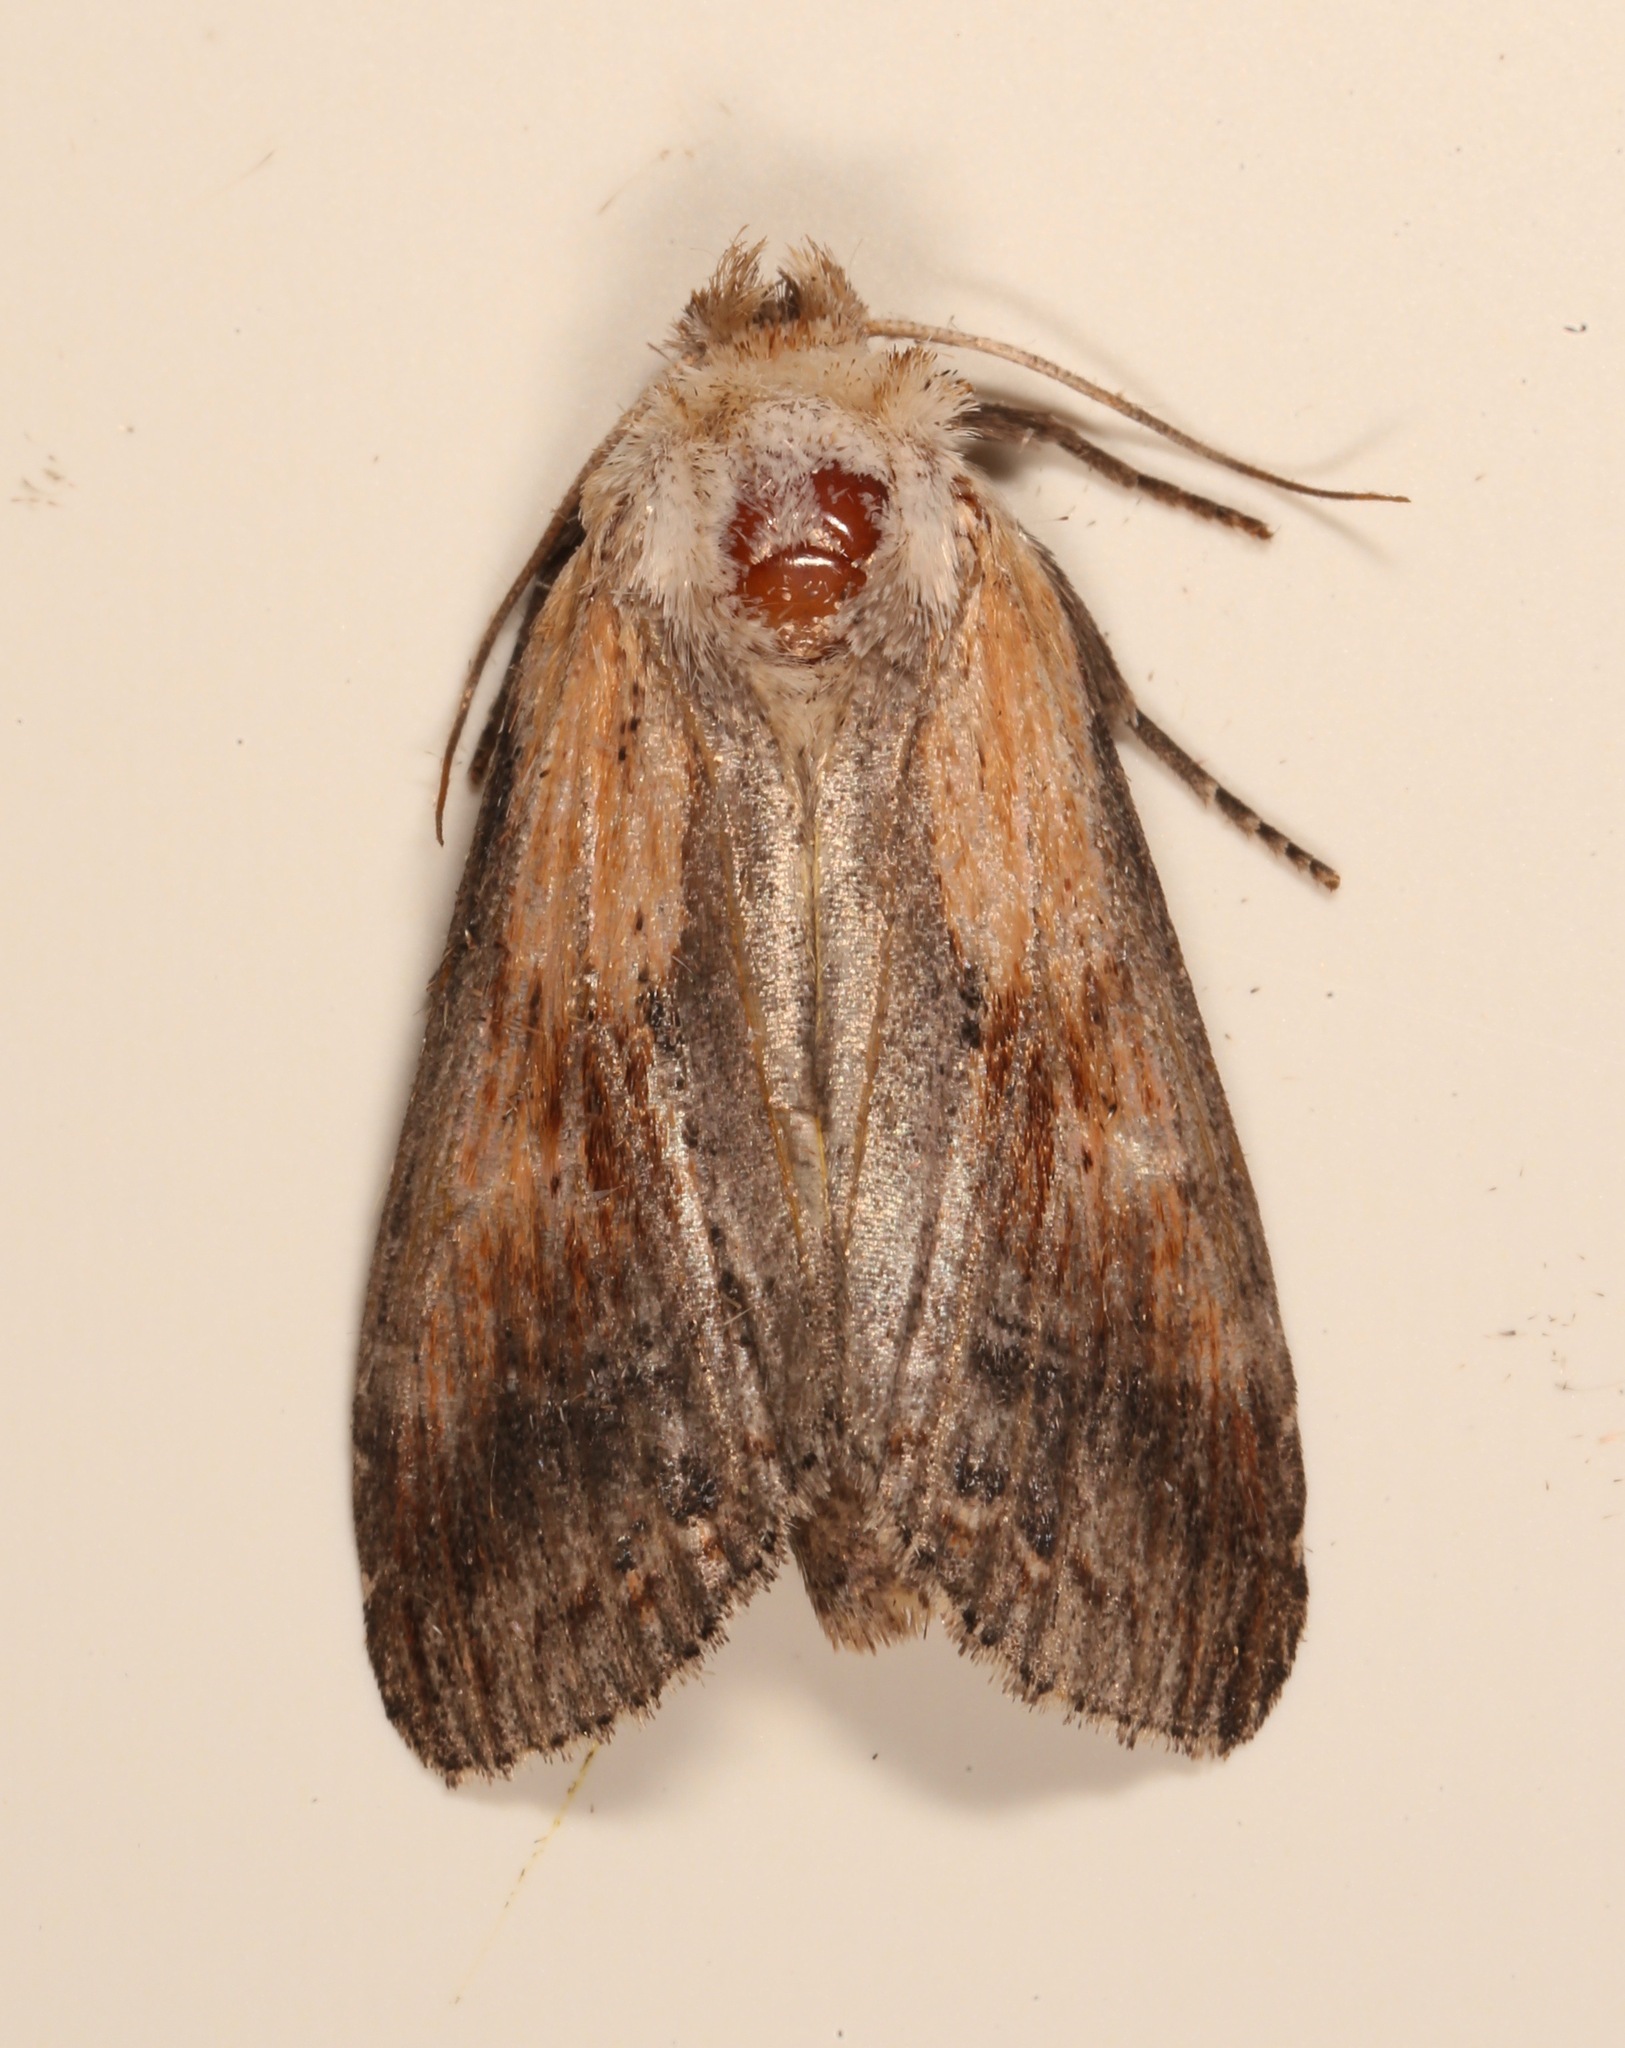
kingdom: Animalia
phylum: Arthropoda
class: Insecta
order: Lepidoptera
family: Notodontidae
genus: Dasylophia
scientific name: Dasylophia anguina
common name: Black-spotted prominent
